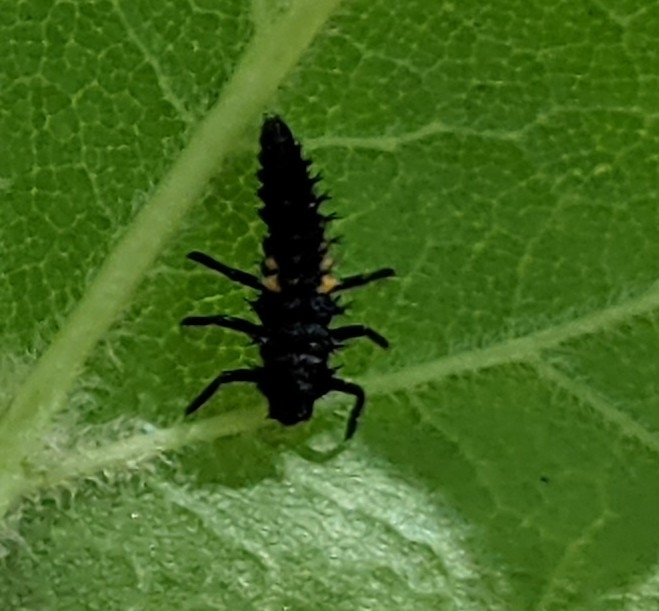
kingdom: Animalia
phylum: Arthropoda
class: Insecta
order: Coleoptera
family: Coccinellidae
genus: Harmonia
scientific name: Harmonia axyridis
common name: Harlequin ladybird
